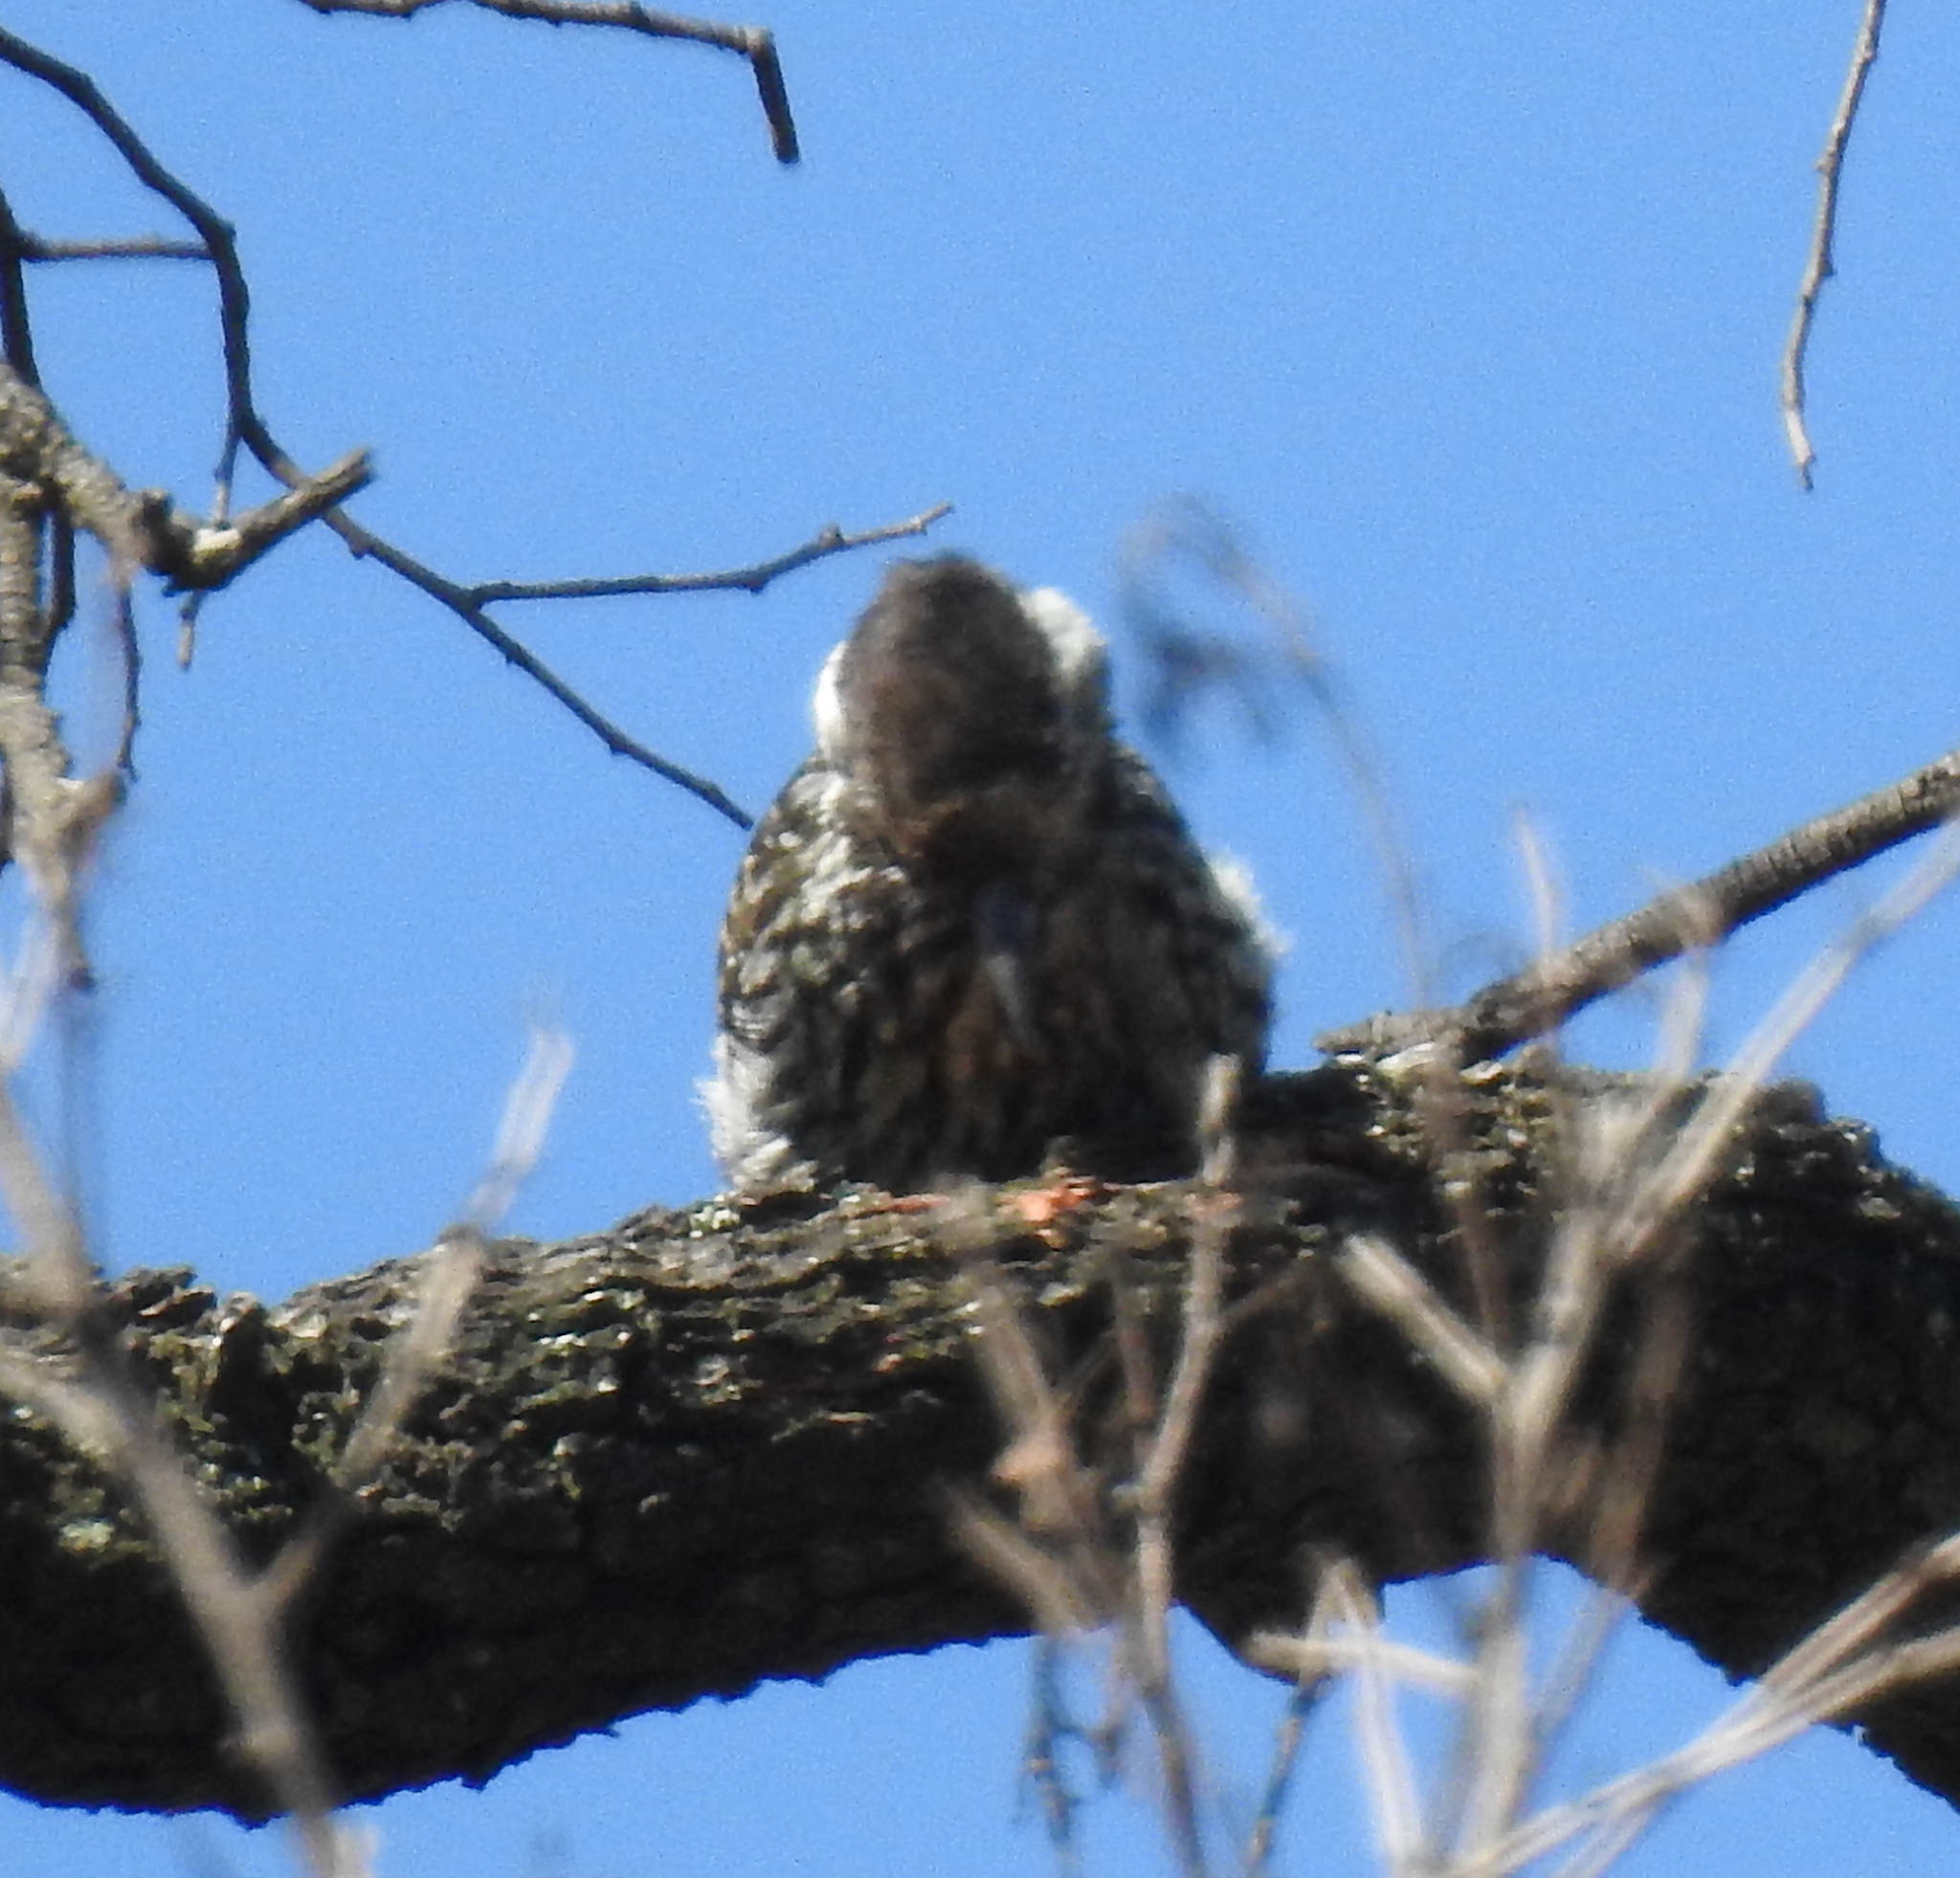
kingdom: Animalia
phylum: Chordata
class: Aves
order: Piciformes
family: Picidae
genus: Dendropicos
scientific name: Dendropicos fuscescens
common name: Cardinal woodpecker
